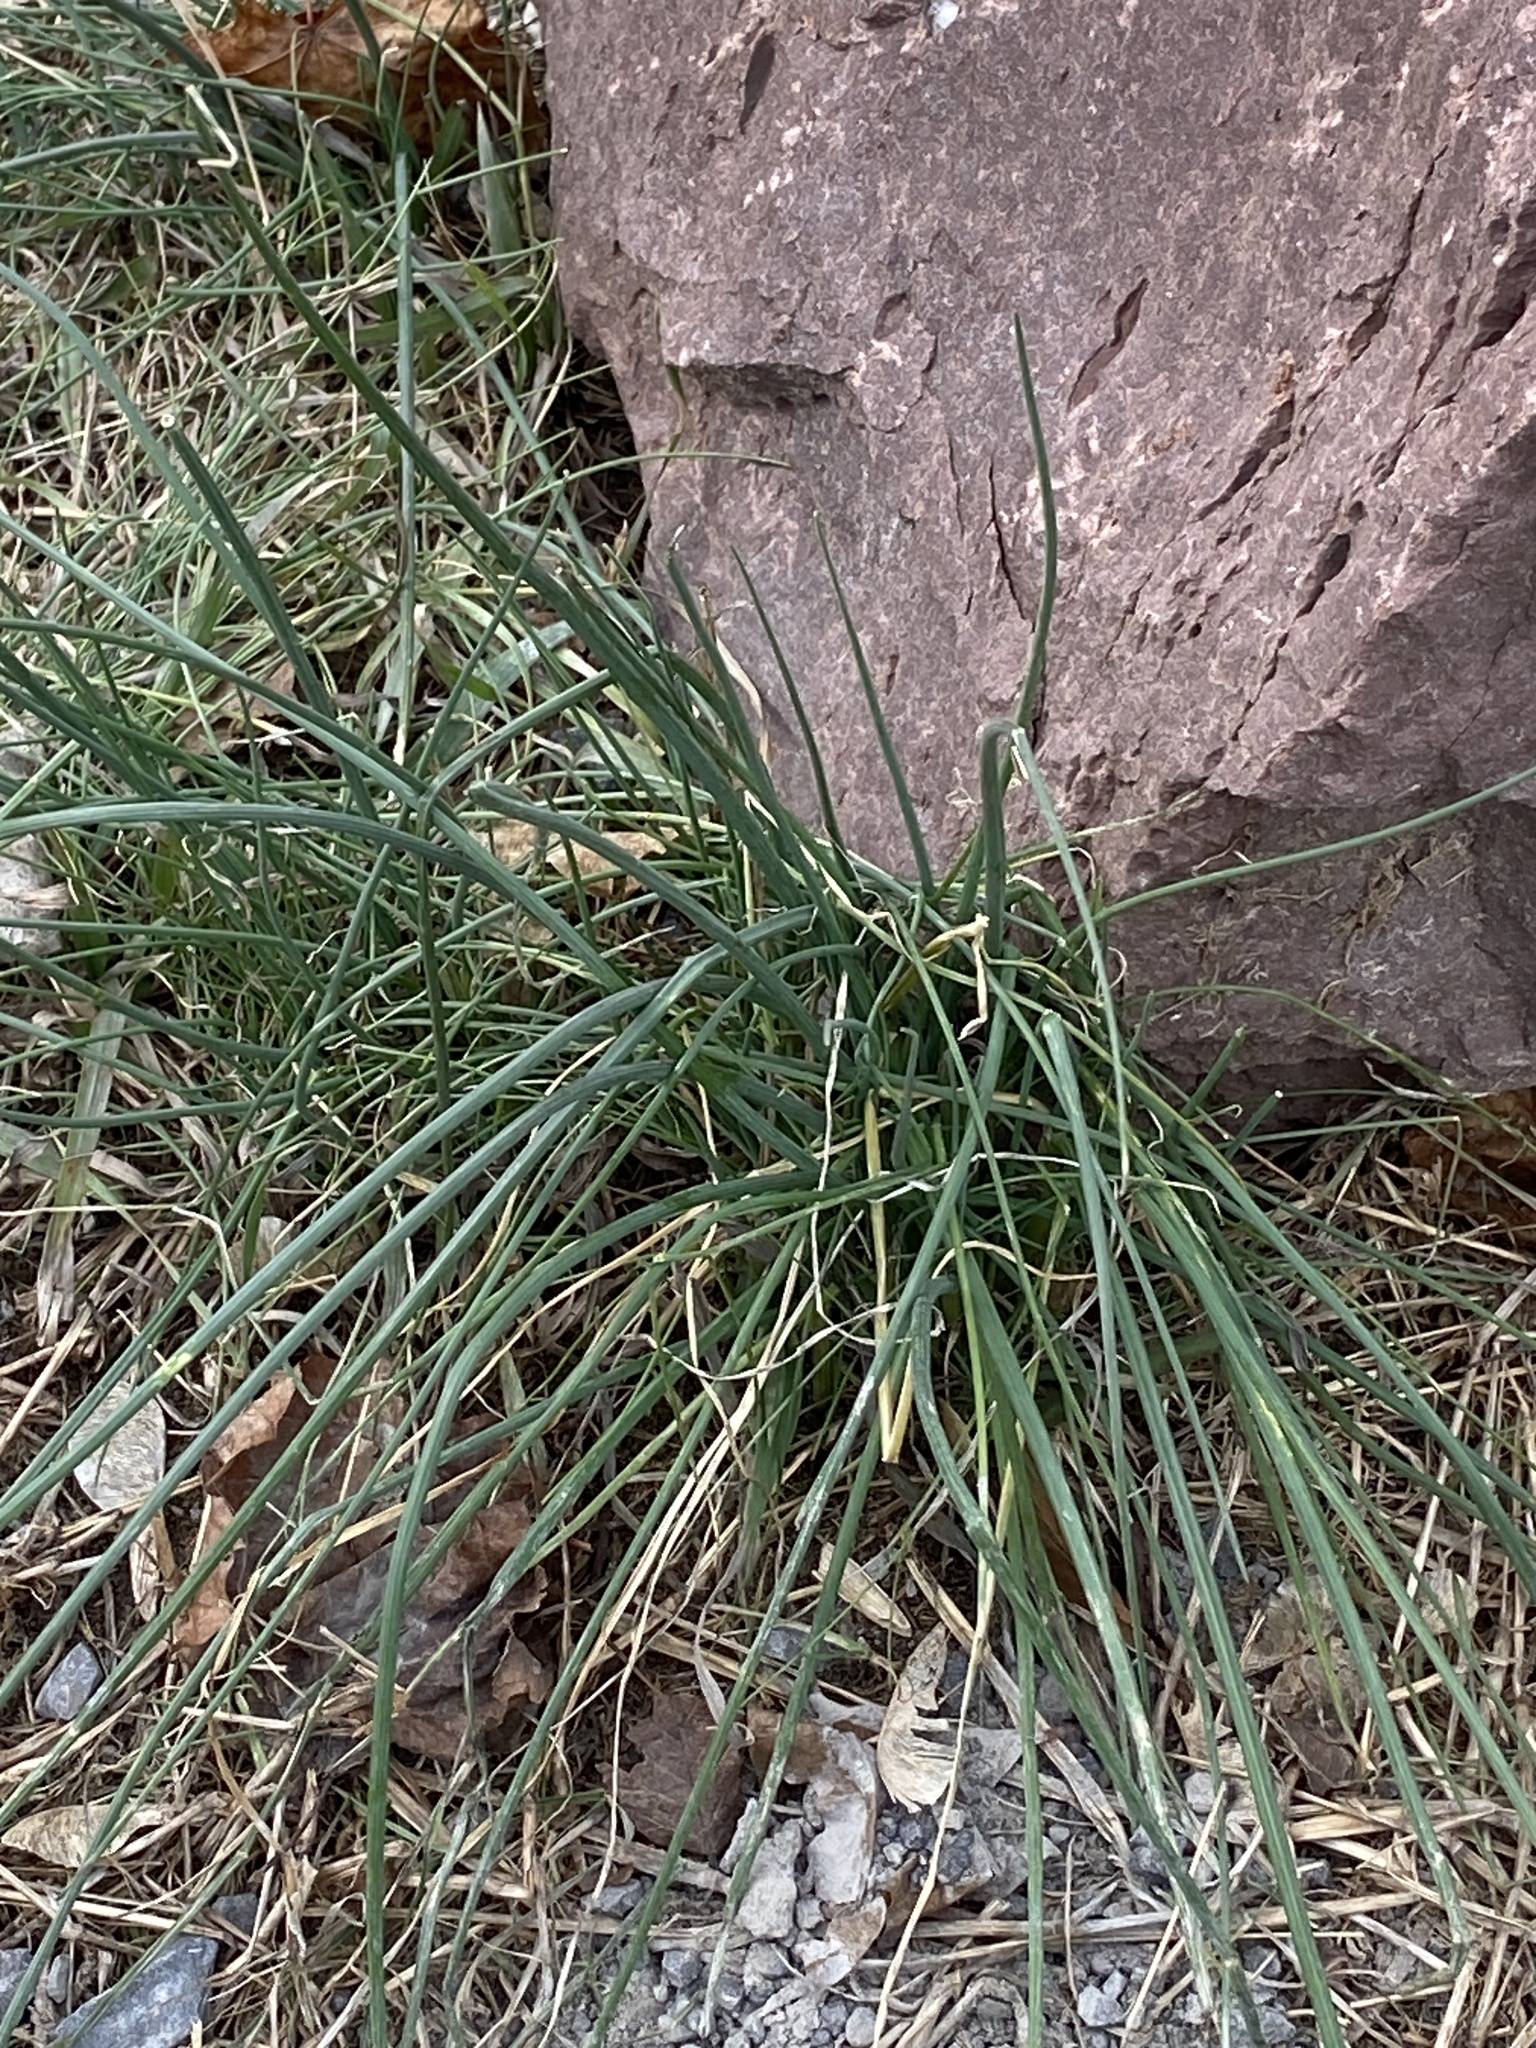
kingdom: Plantae
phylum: Tracheophyta
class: Liliopsida
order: Asparagales
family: Amaryllidaceae
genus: Allium
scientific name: Allium vineale
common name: Crow garlic
